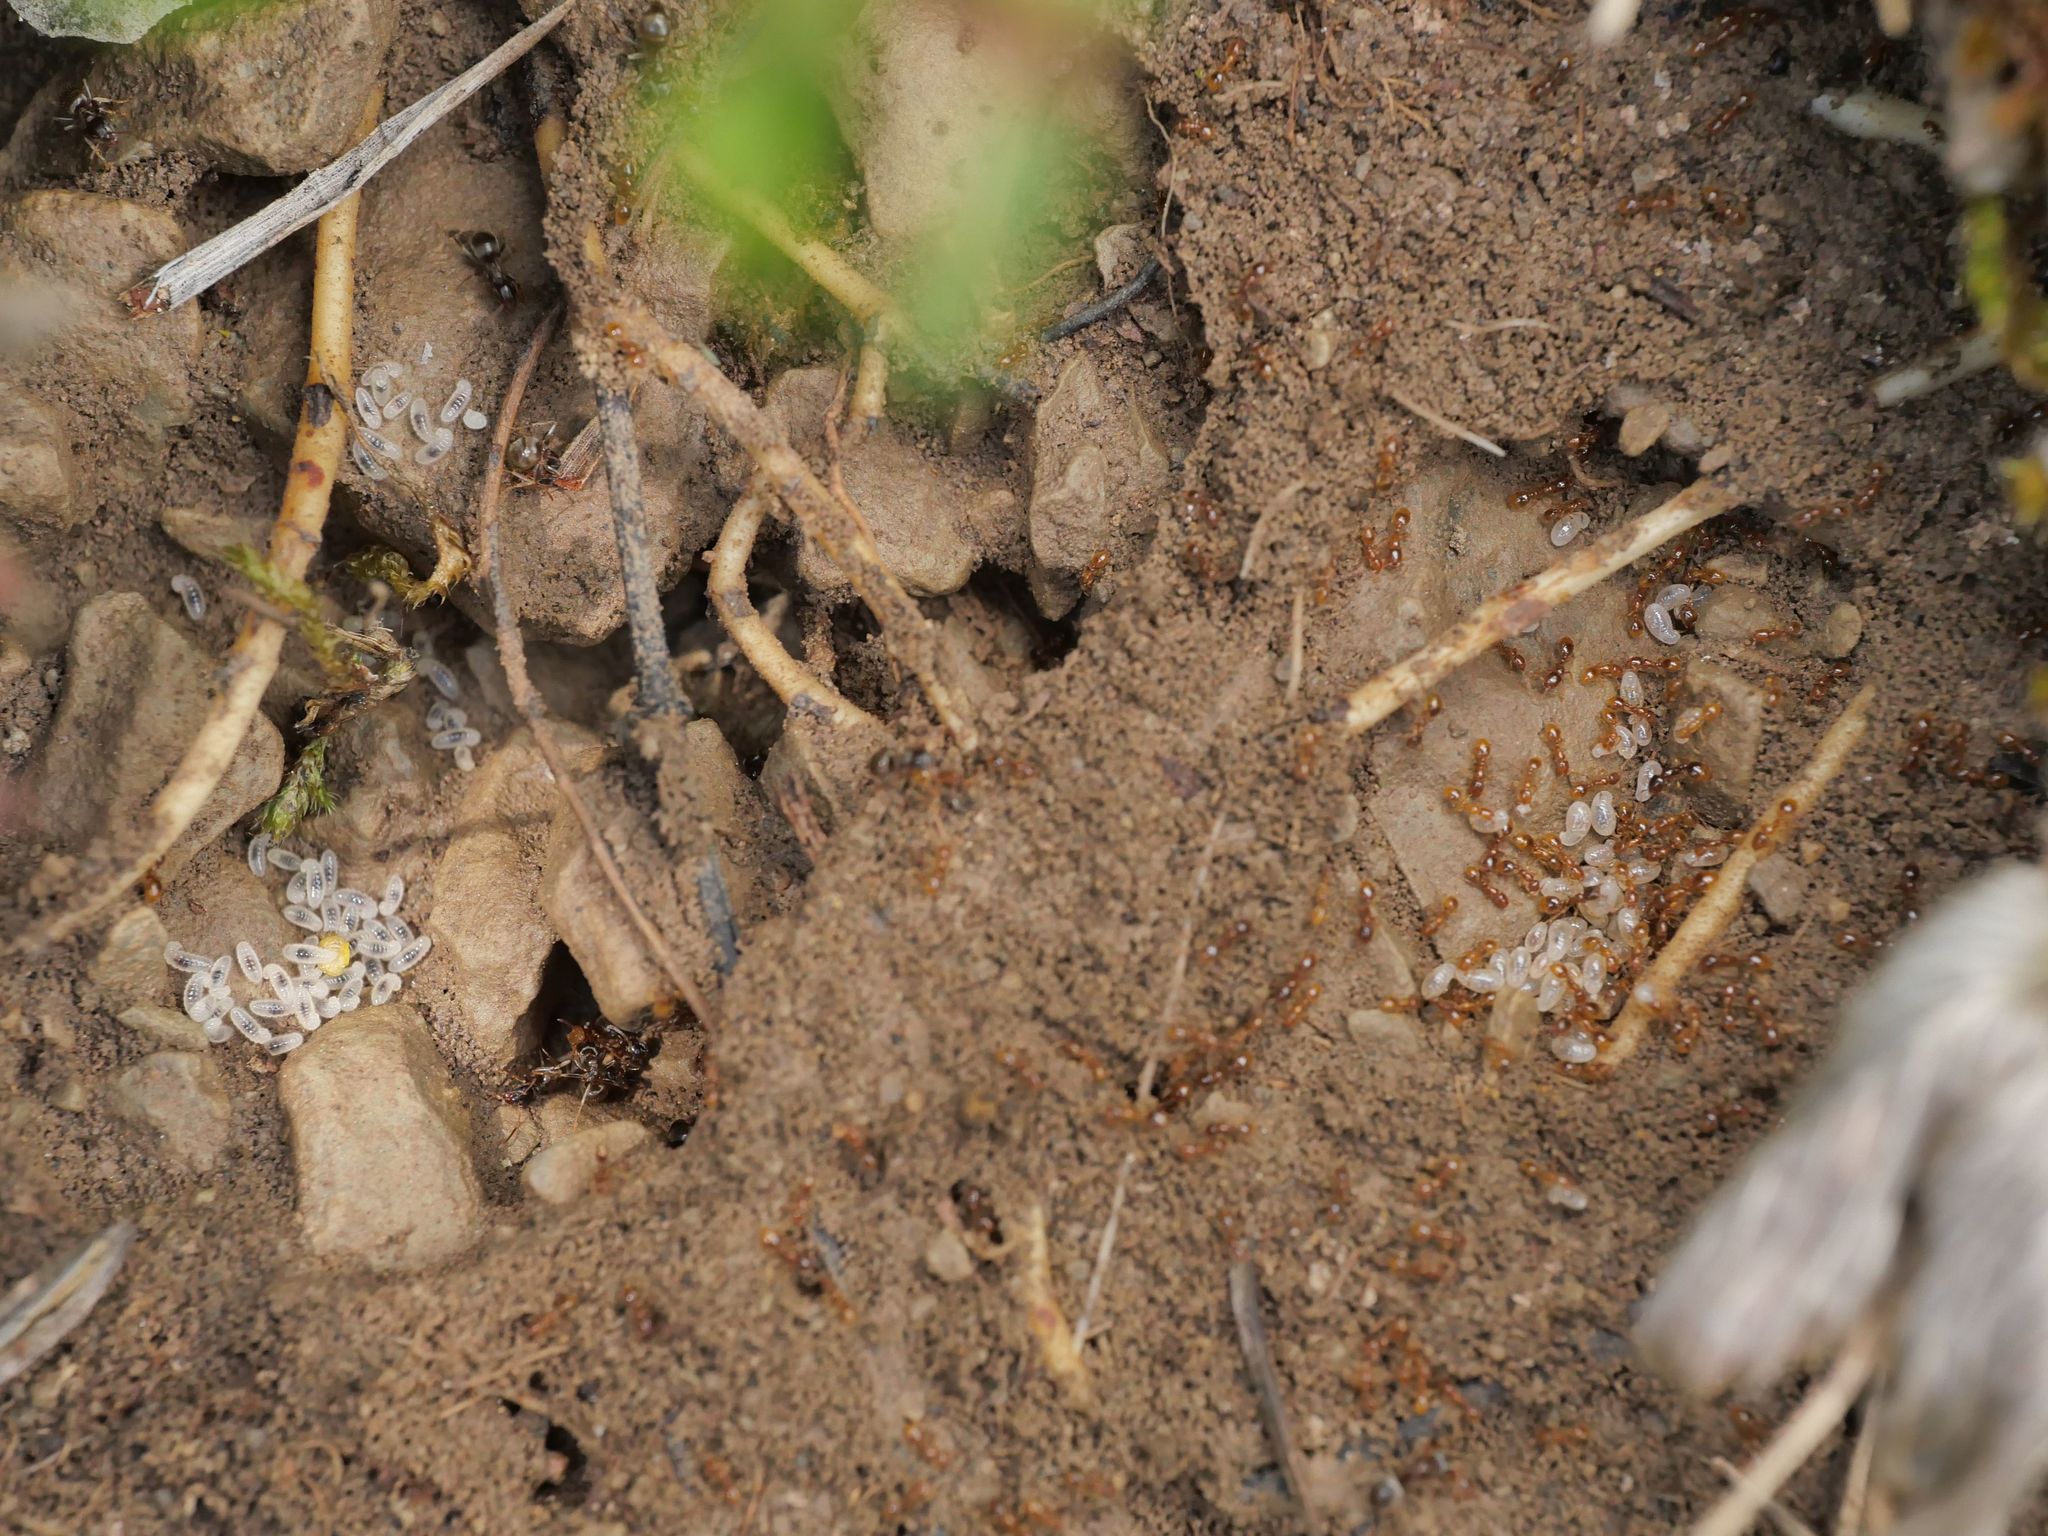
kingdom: Animalia
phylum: Arthropoda
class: Insecta
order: Hymenoptera
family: Formicidae
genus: Solenopsis
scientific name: Solenopsis fugax
